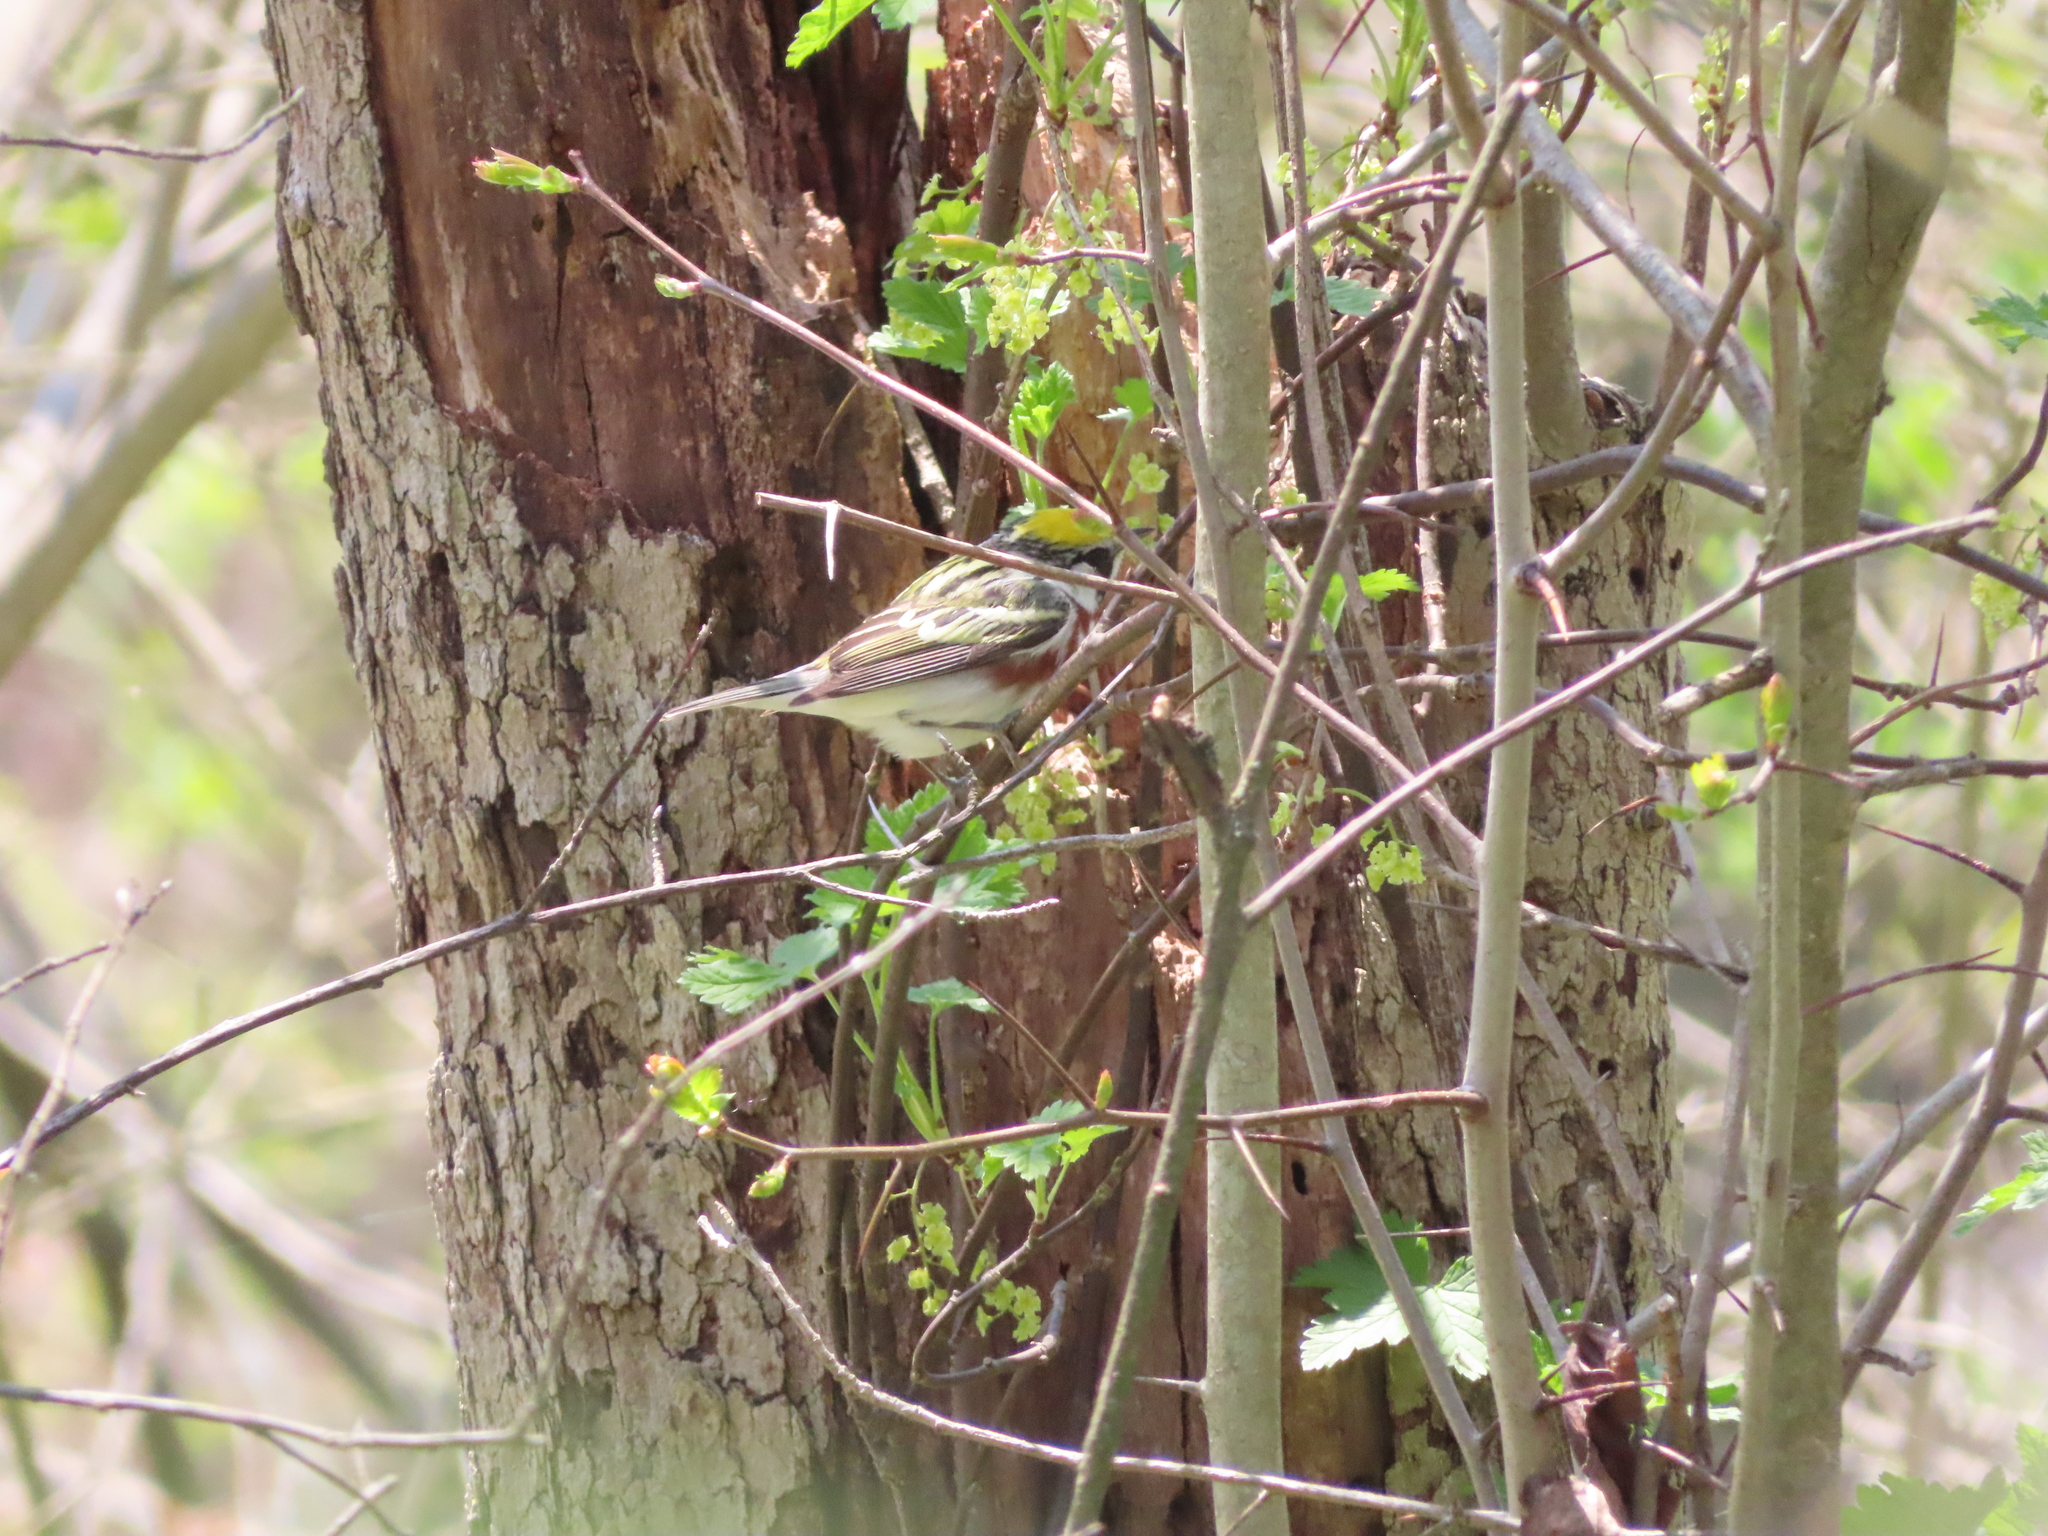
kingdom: Animalia
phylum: Chordata
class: Aves
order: Passeriformes
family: Parulidae
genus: Setophaga
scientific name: Setophaga pensylvanica
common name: Chestnut-sided warbler
